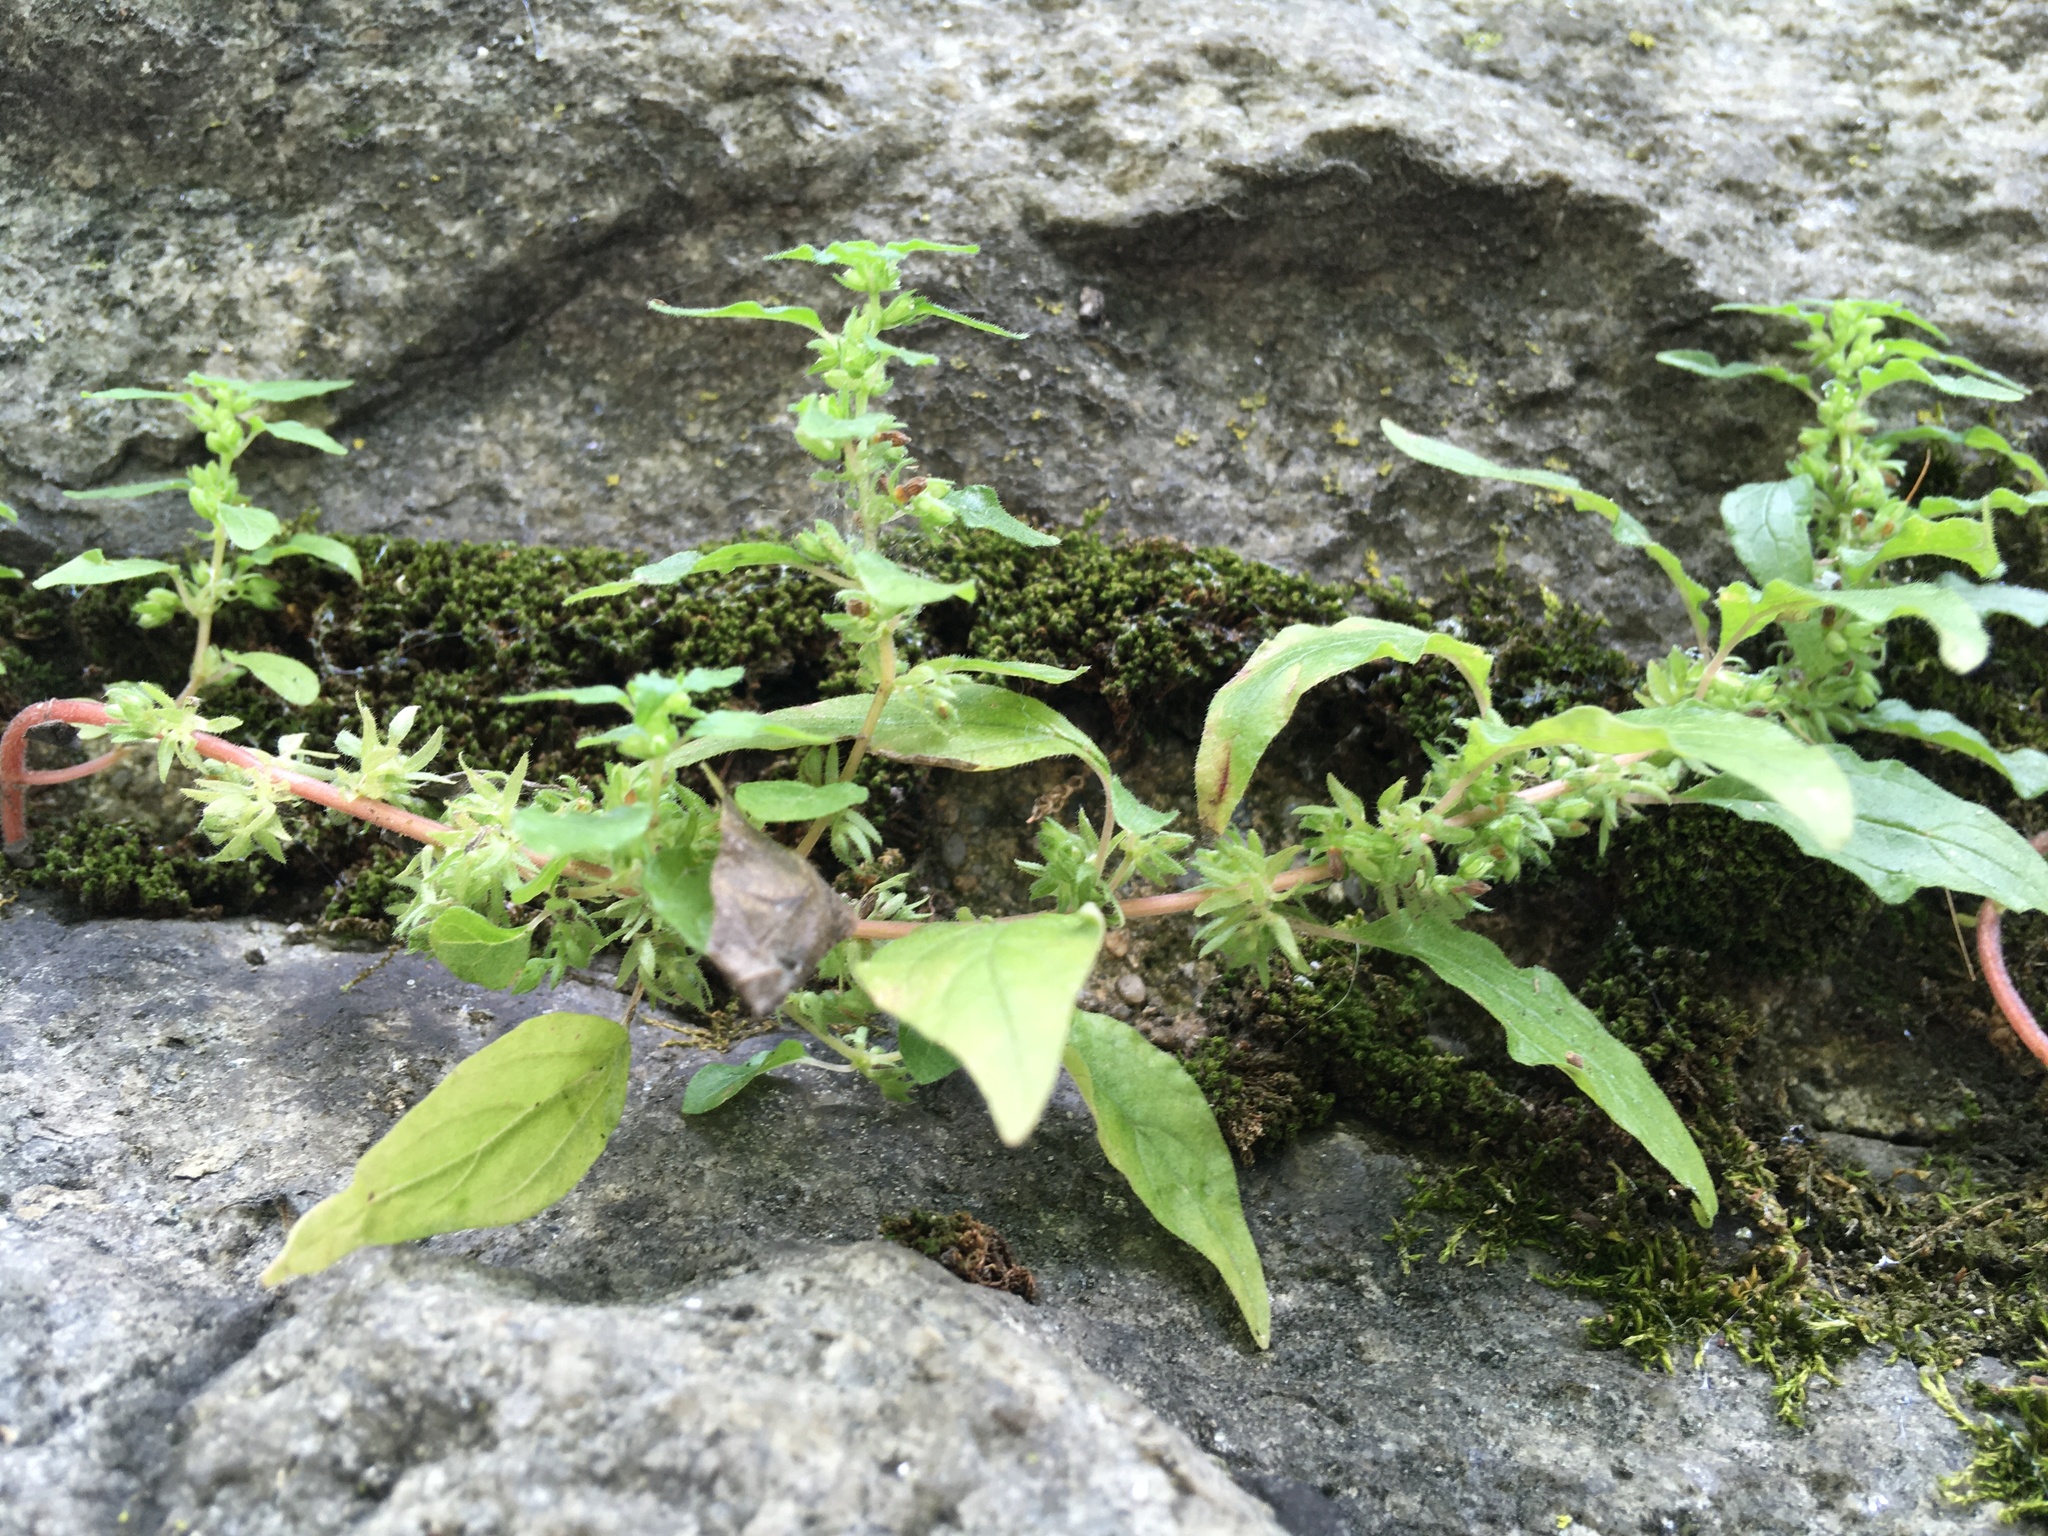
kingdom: Plantae
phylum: Tracheophyta
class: Magnoliopsida
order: Rosales
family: Urticaceae
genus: Parietaria
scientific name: Parietaria pensylvanica
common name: Pennsylvania pellitory
